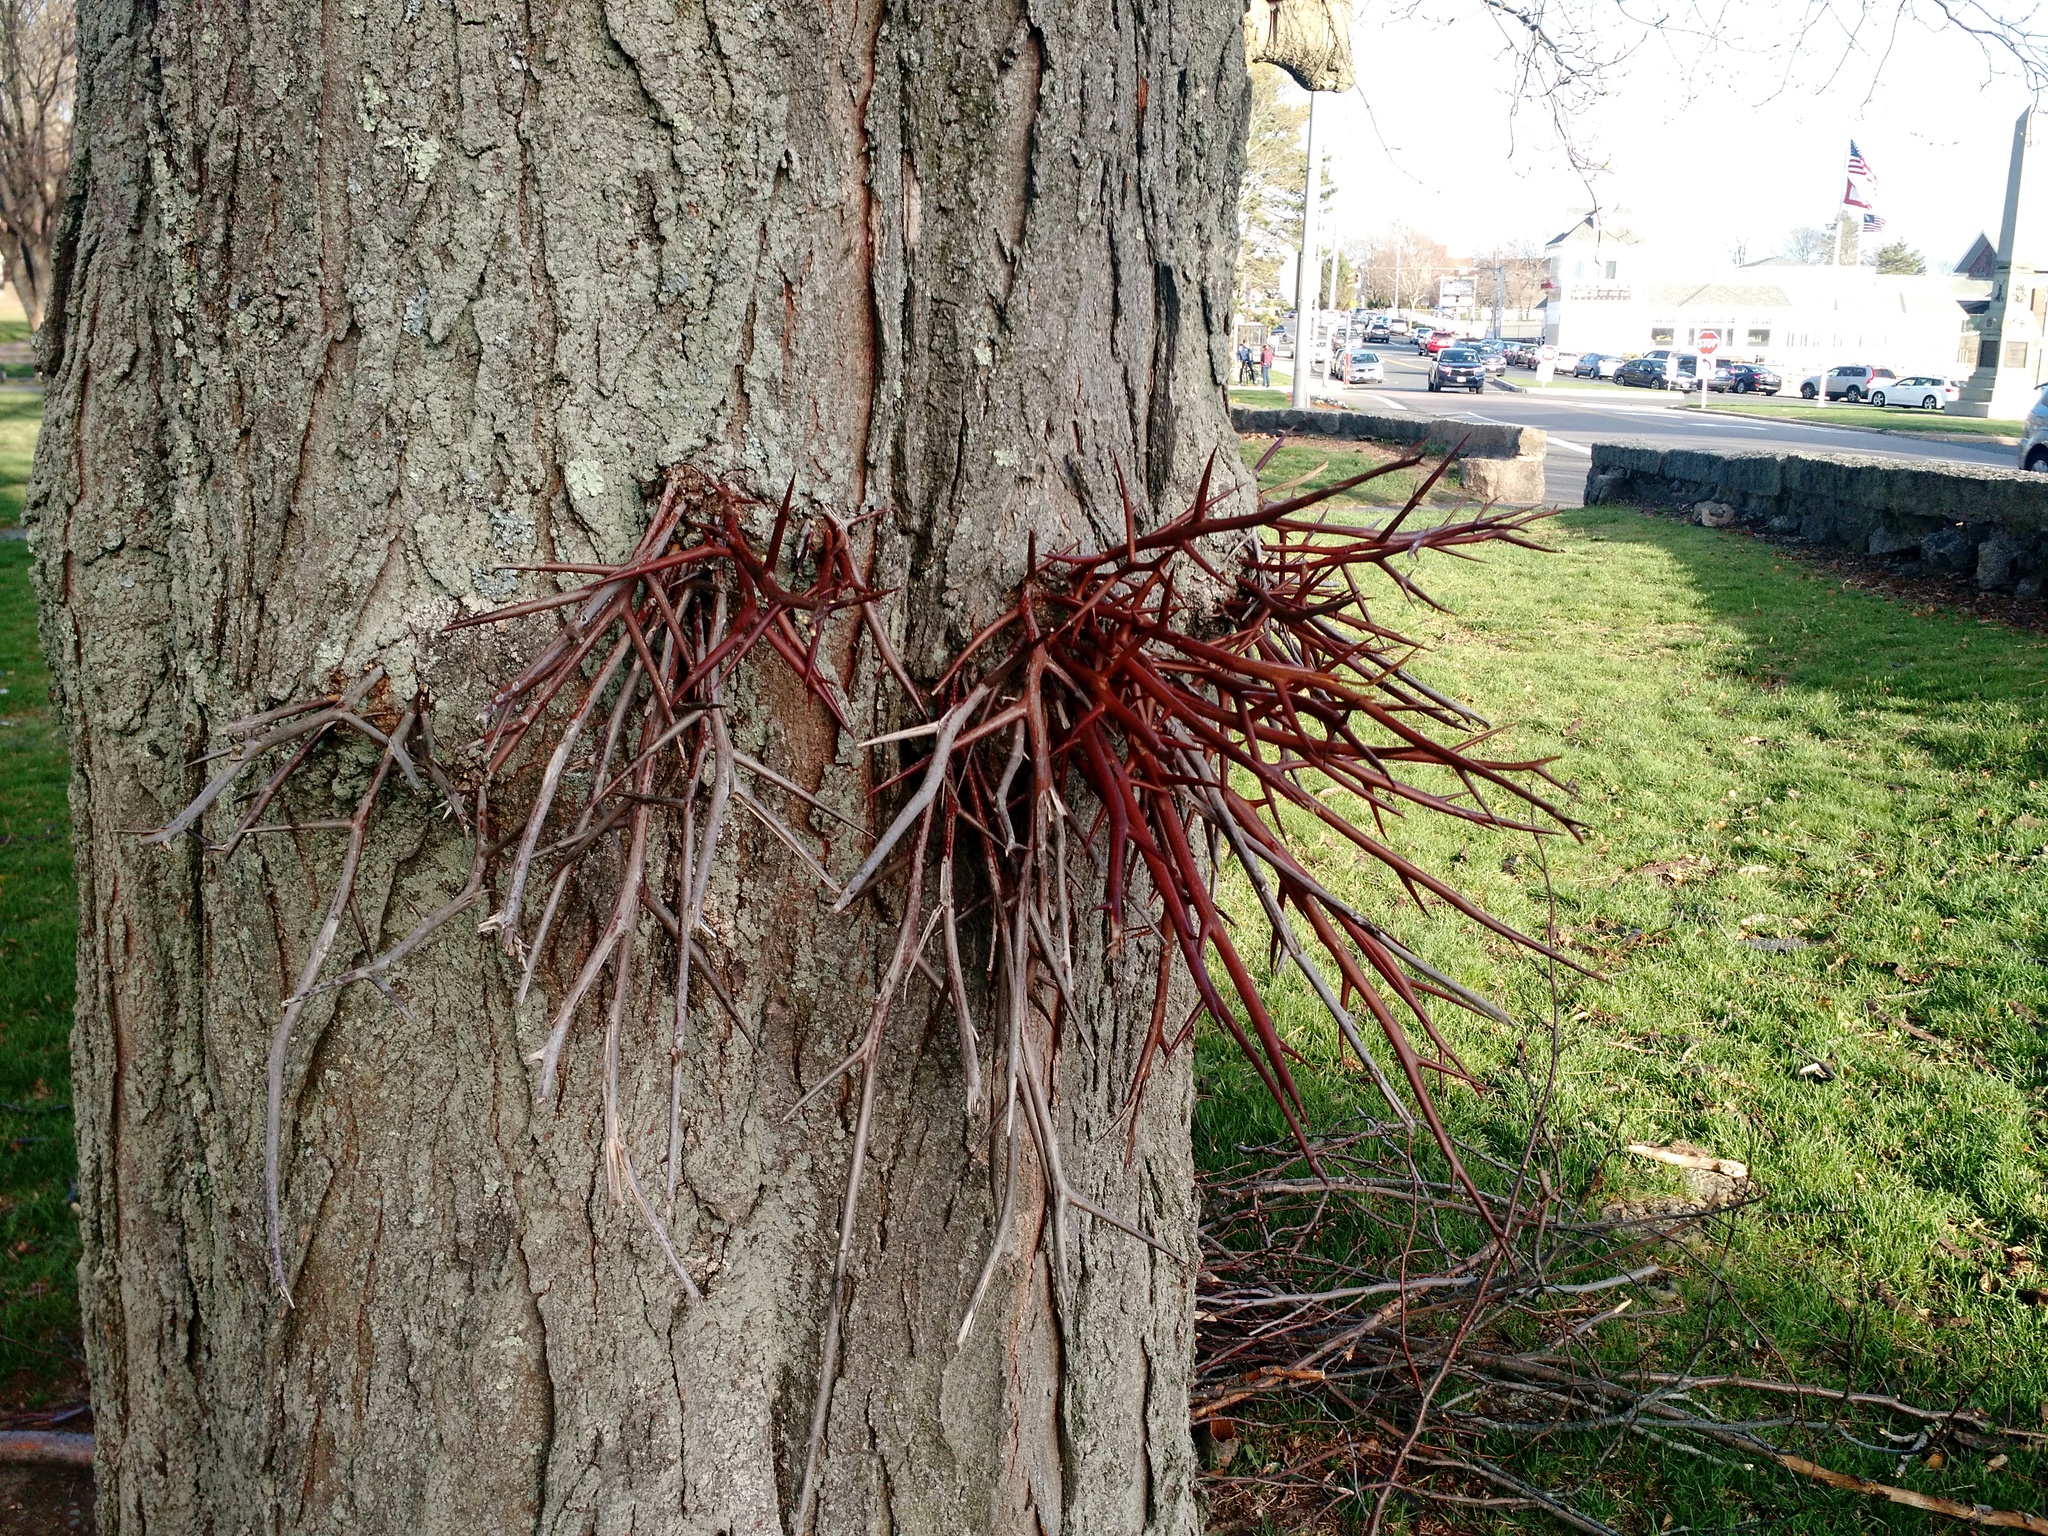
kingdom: Plantae
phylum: Tracheophyta
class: Magnoliopsida
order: Fabales
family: Fabaceae
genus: Gleditsia
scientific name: Gleditsia triacanthos
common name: Common honeylocust
